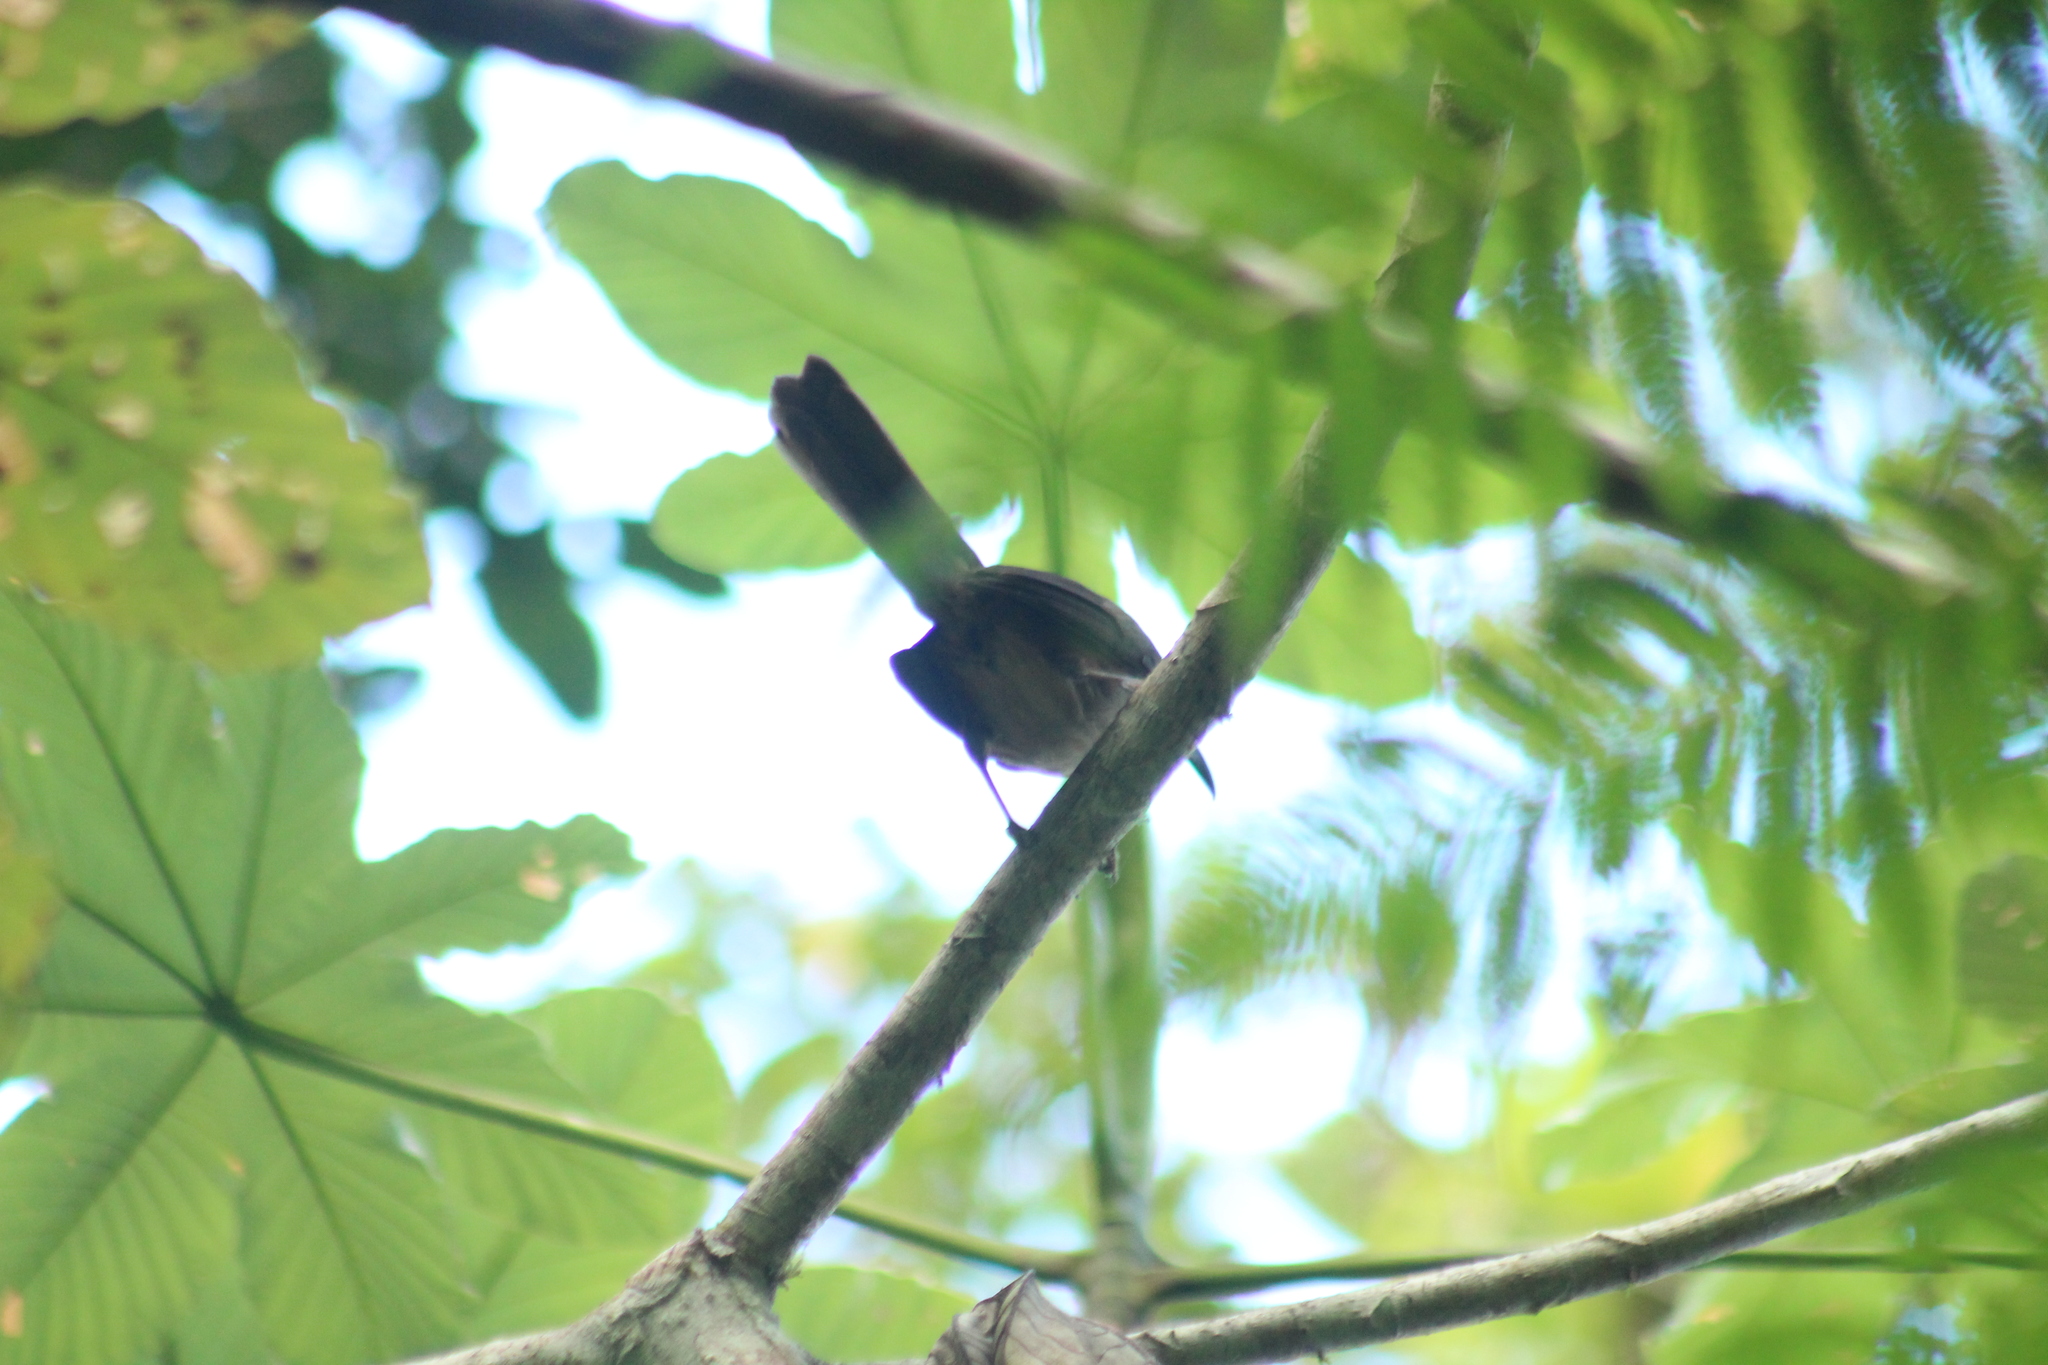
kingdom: Animalia
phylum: Chordata
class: Aves
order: Passeriformes
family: Mimidae
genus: Cinclocerthia
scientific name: Cinclocerthia ruficauda
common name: Brown trembler
